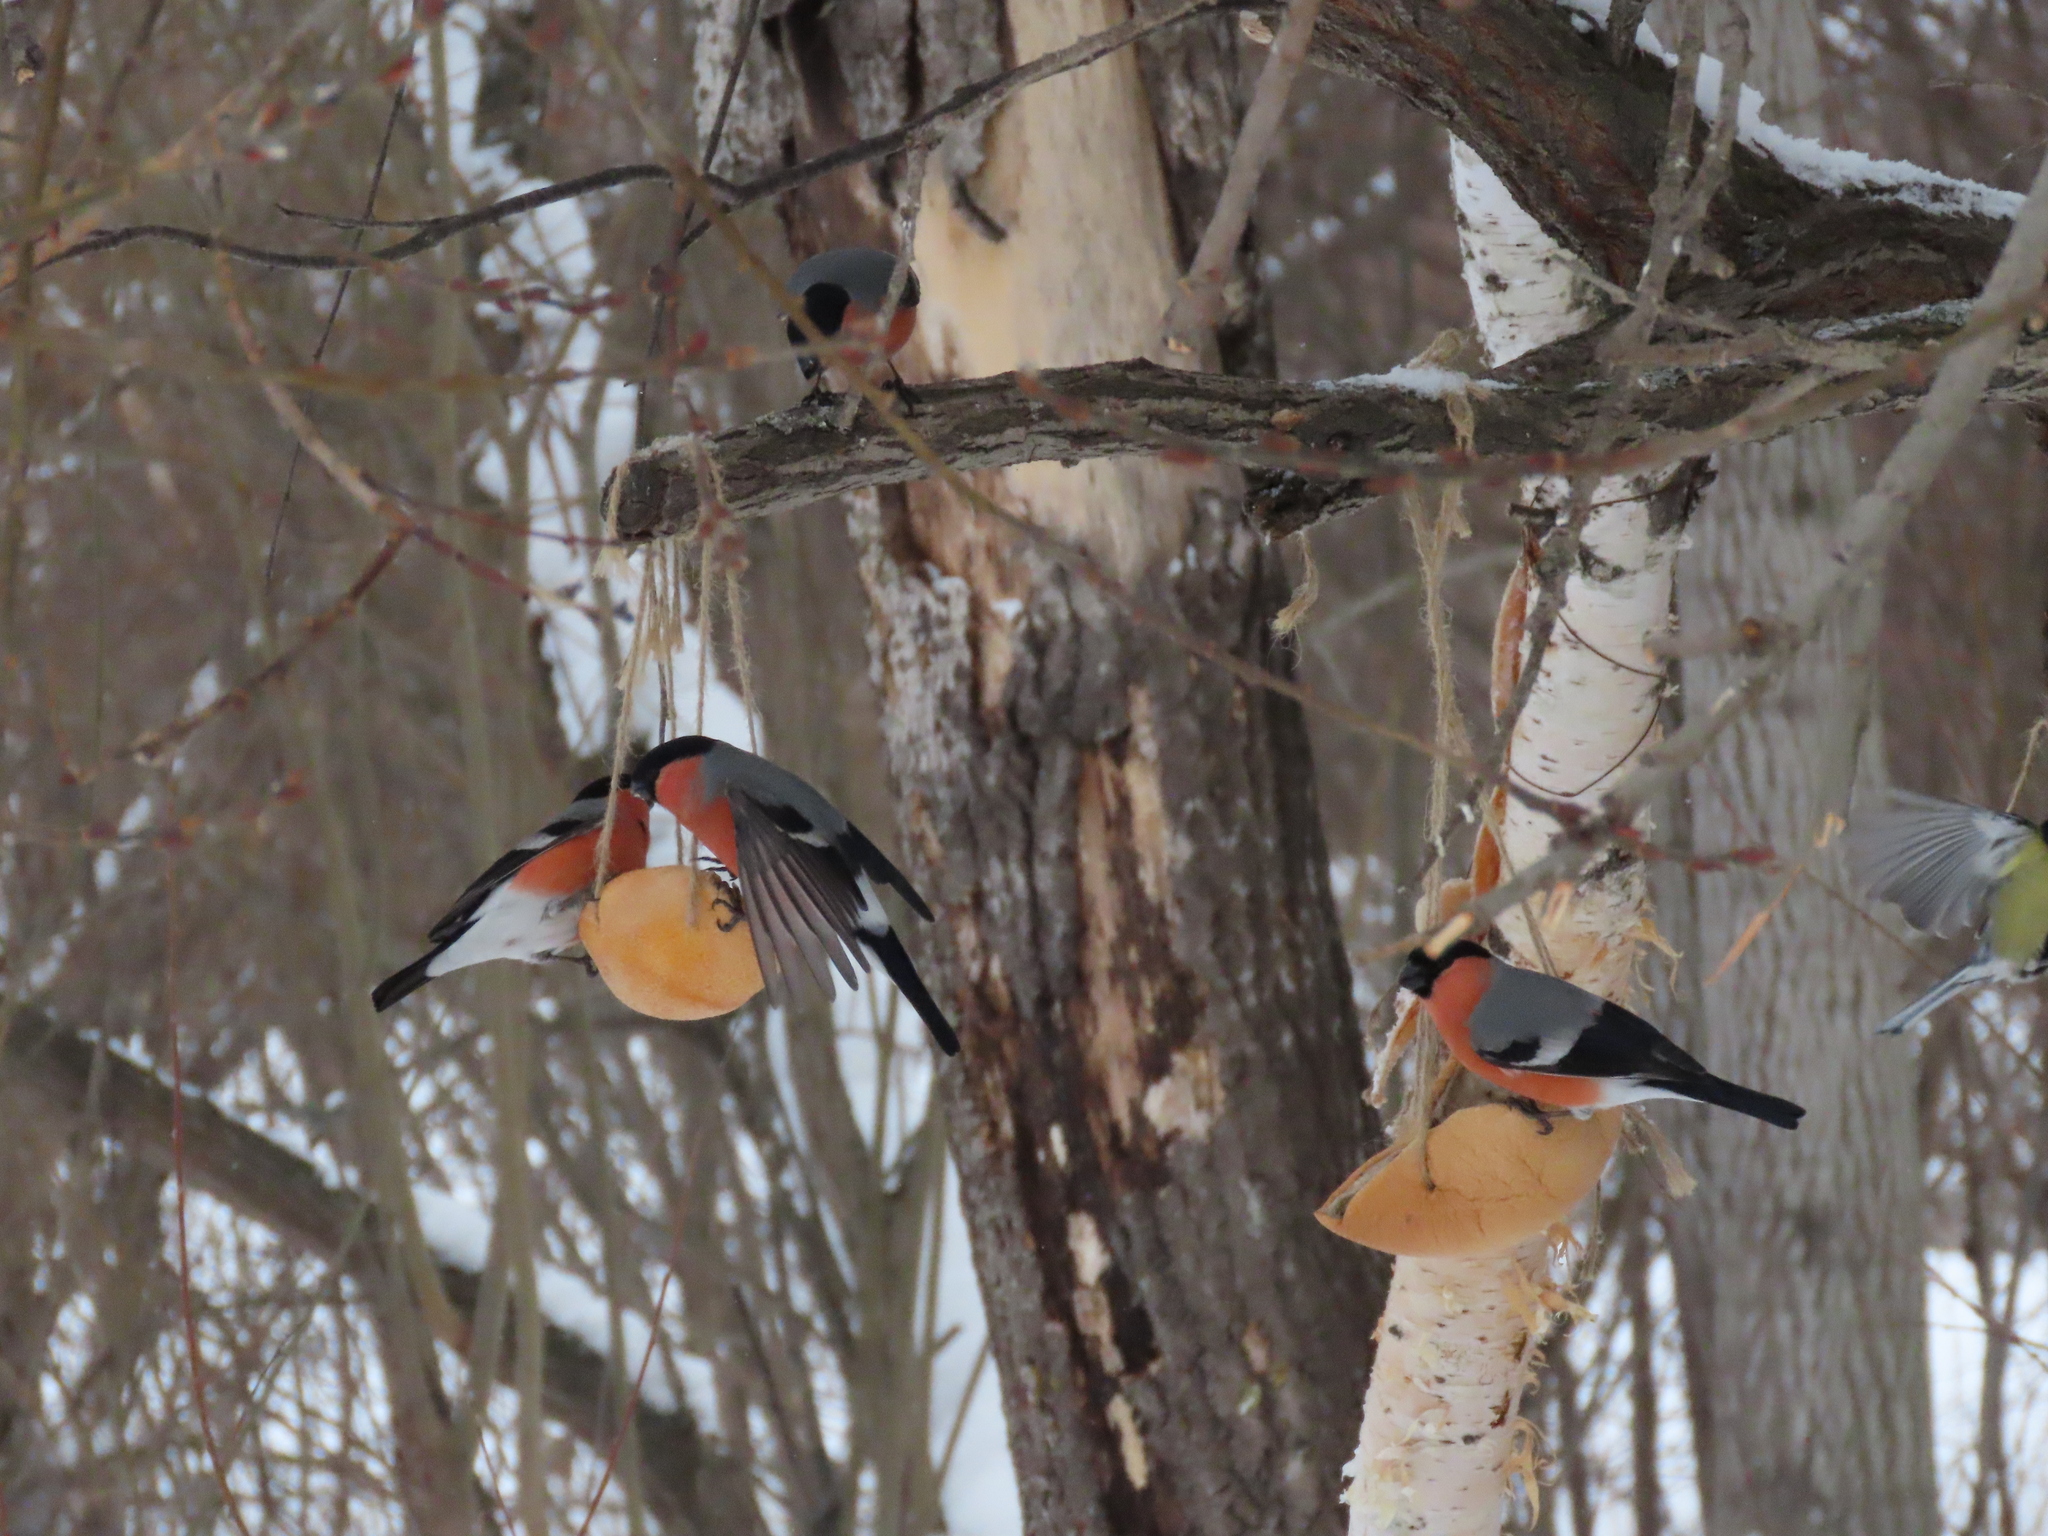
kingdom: Animalia
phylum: Chordata
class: Aves
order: Passeriformes
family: Fringillidae
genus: Pyrrhula
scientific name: Pyrrhula pyrrhula
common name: Eurasian bullfinch
